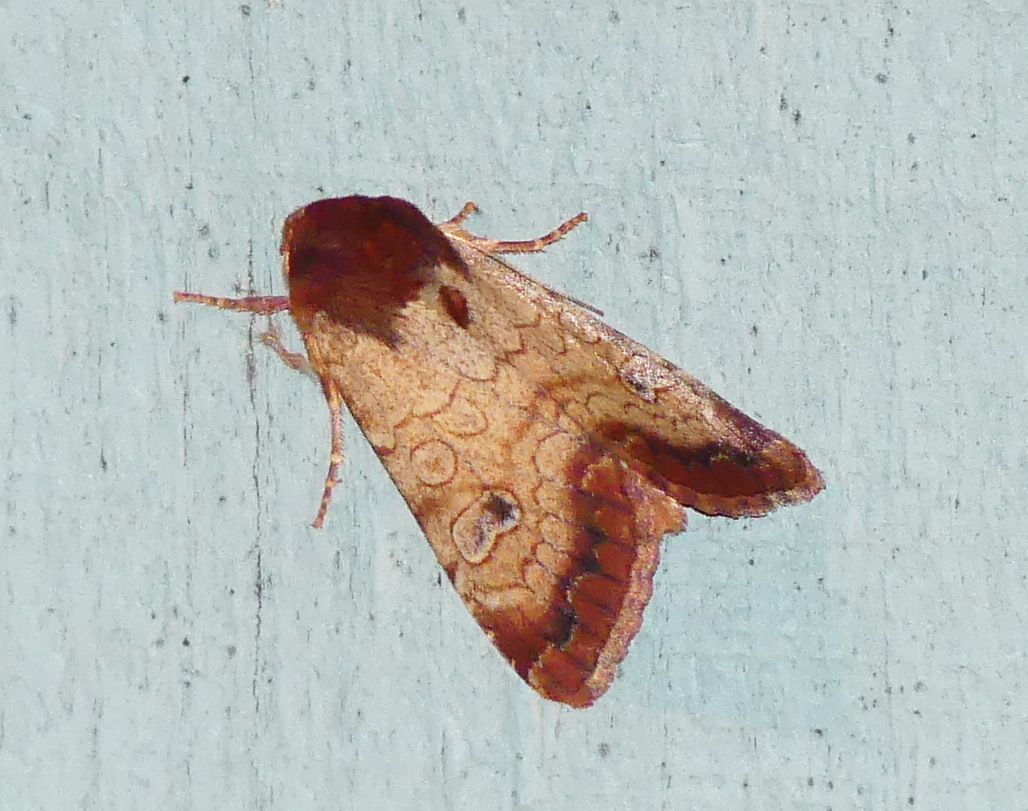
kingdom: Animalia
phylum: Arthropoda
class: Insecta
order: Lepidoptera
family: Noctuidae
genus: Sideridis
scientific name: Sideridis rosea
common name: Rosewing moth
